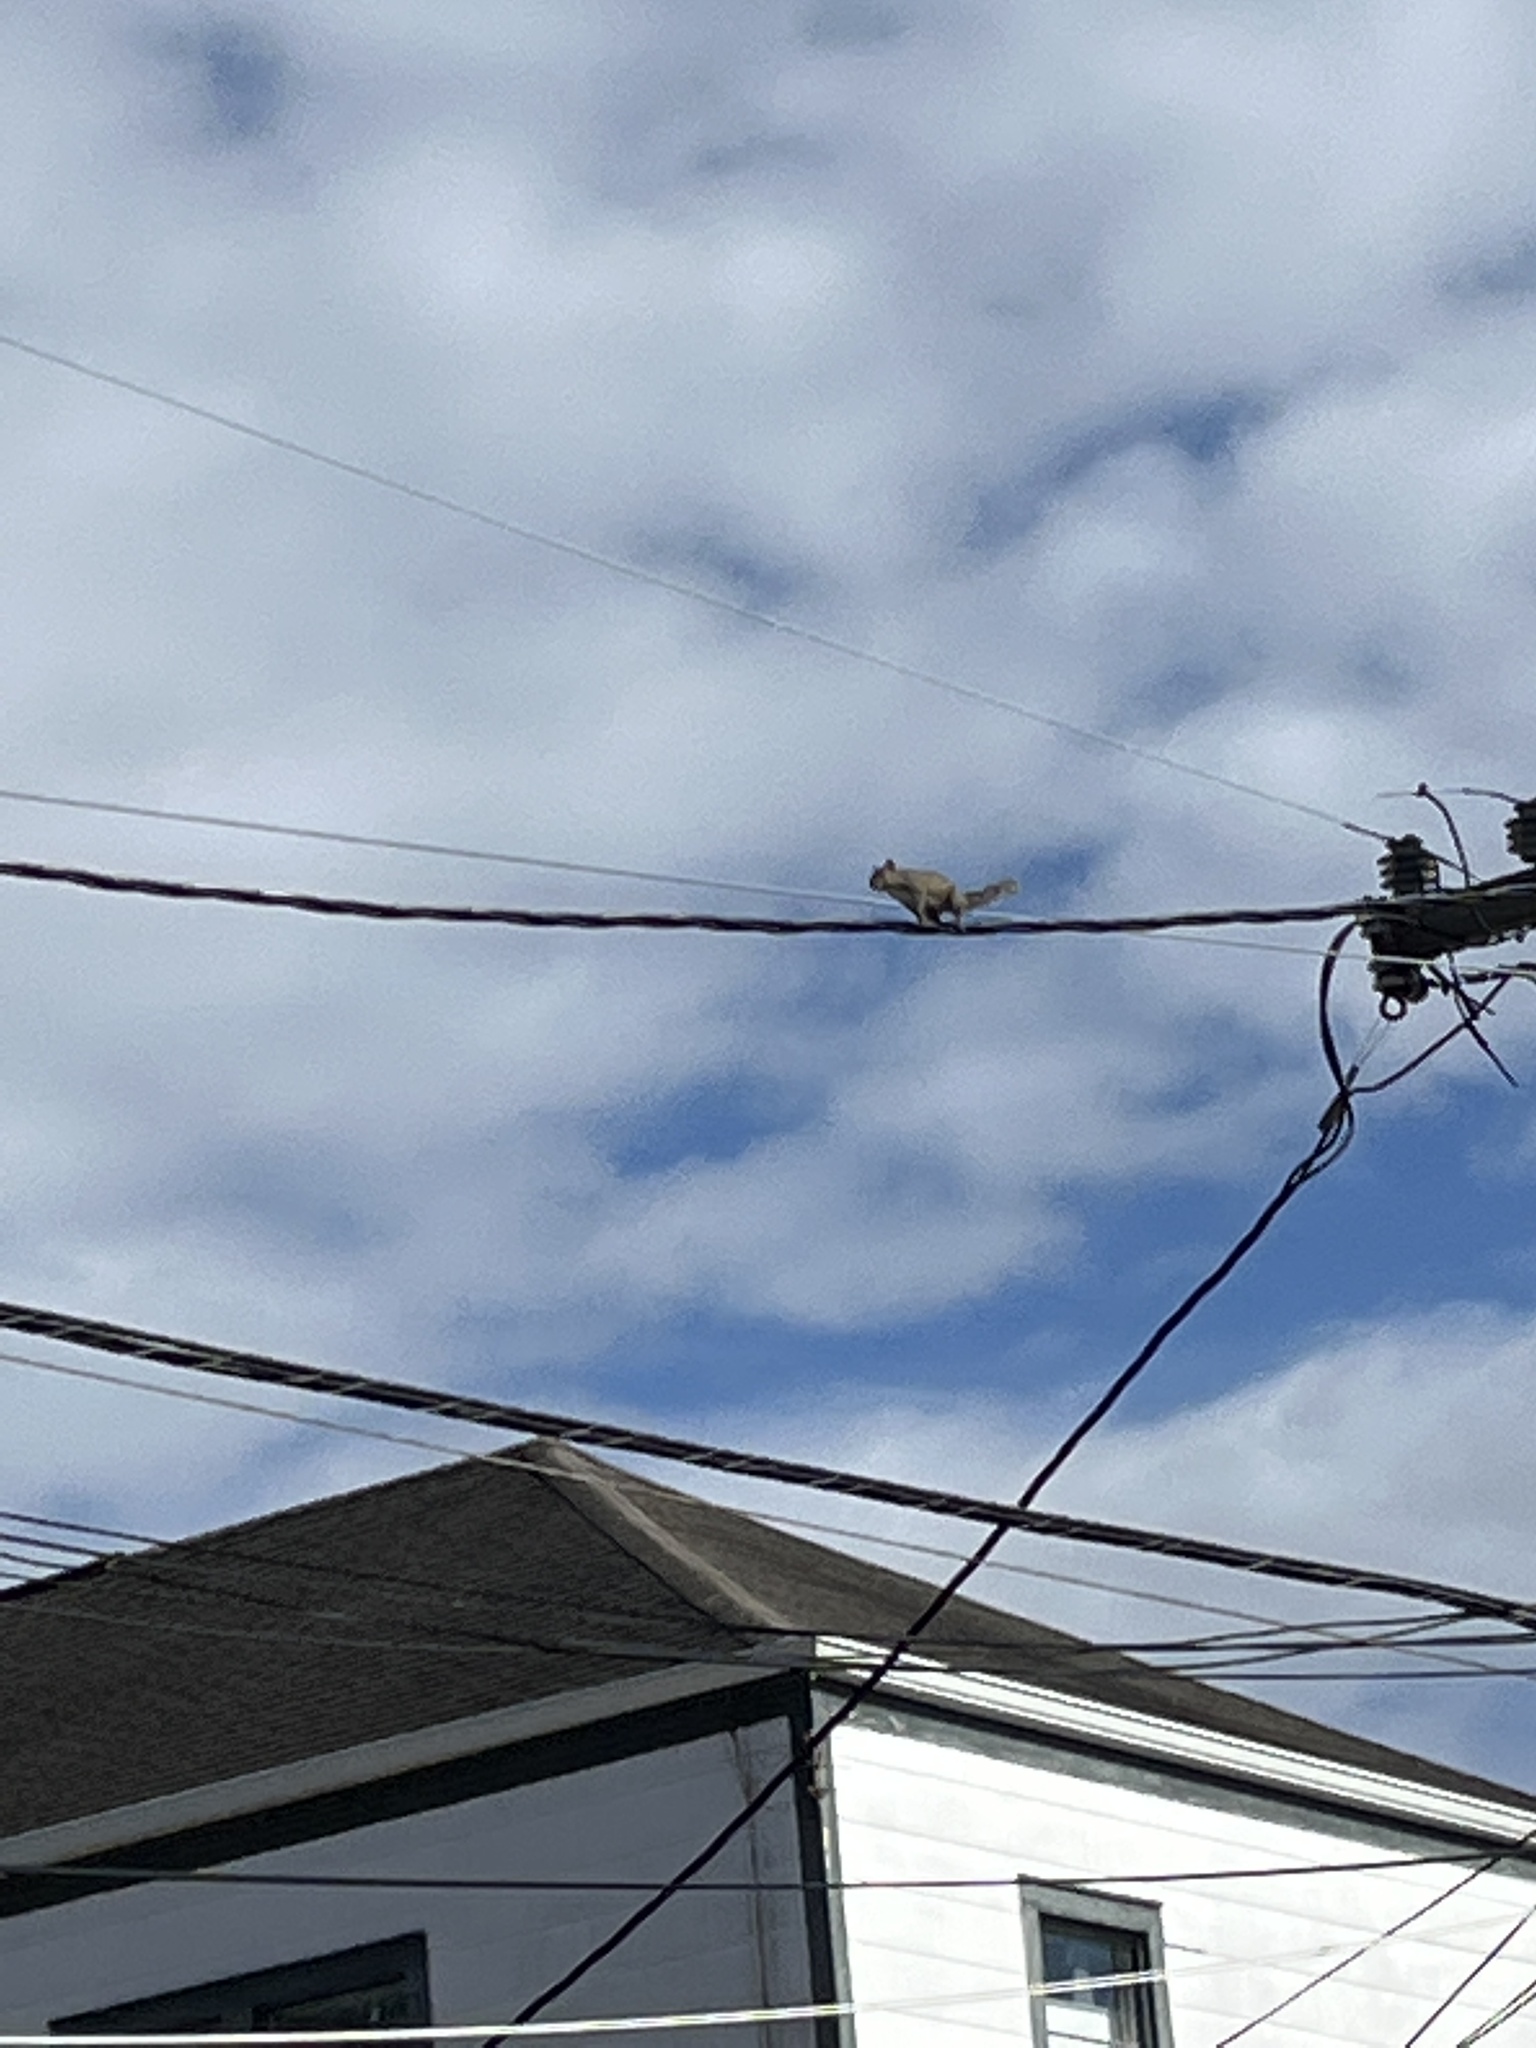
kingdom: Animalia
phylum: Chordata
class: Mammalia
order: Rodentia
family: Sciuridae
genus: Sciurus
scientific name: Sciurus carolinensis
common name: Eastern gray squirrel
